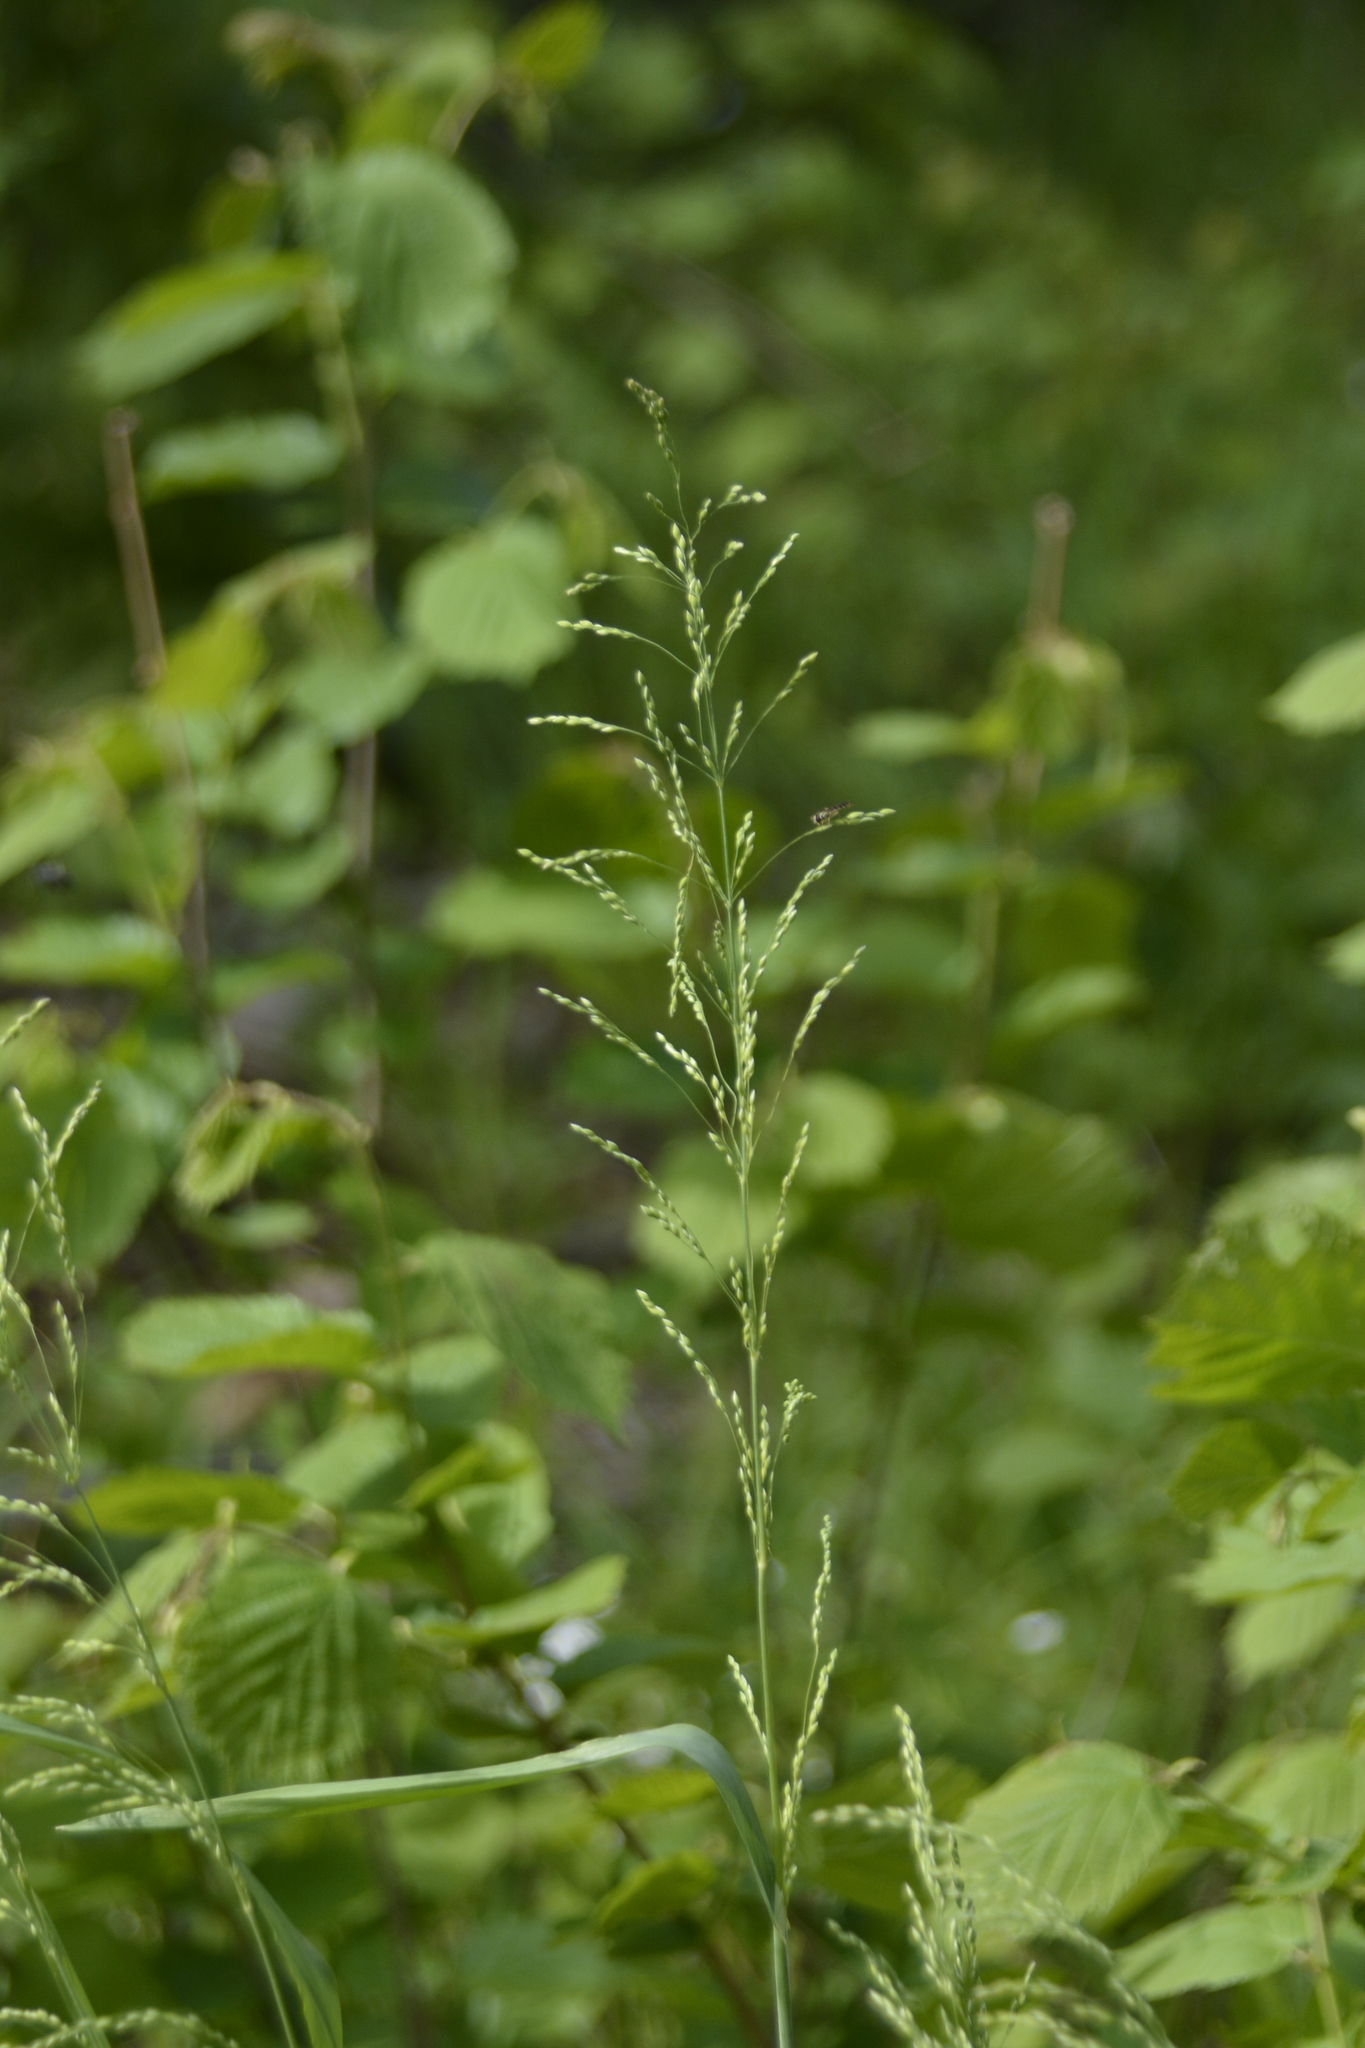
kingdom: Plantae
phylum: Tracheophyta
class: Liliopsida
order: Poales
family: Poaceae
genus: Milium
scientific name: Milium effusum
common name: Wood millet
